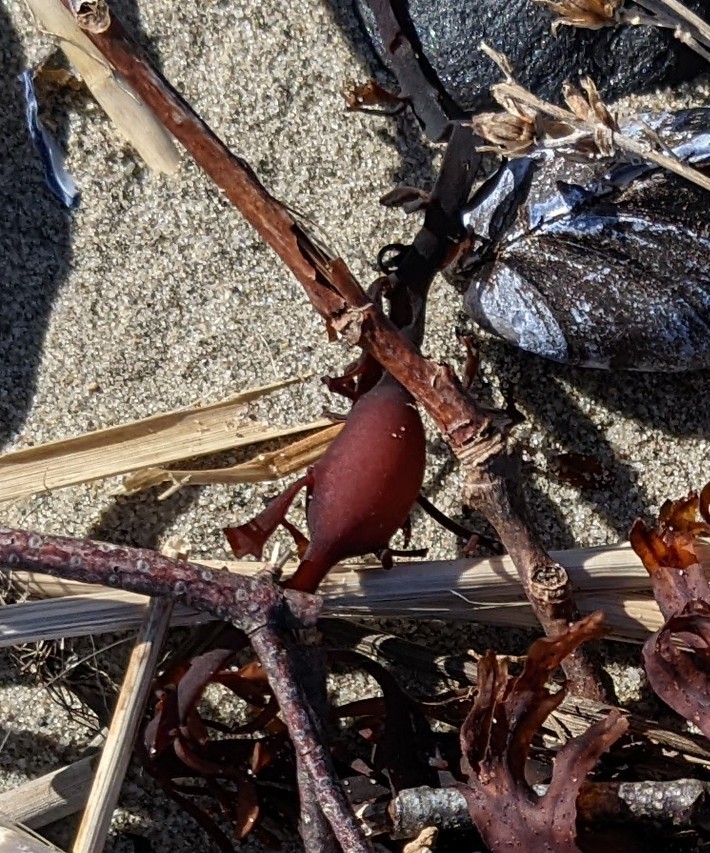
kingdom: Chromista
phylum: Ochrophyta
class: Phaeophyceae
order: Fucales
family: Fucaceae
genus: Ascophyllum
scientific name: Ascophyllum nodosum
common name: Knotted wrack
